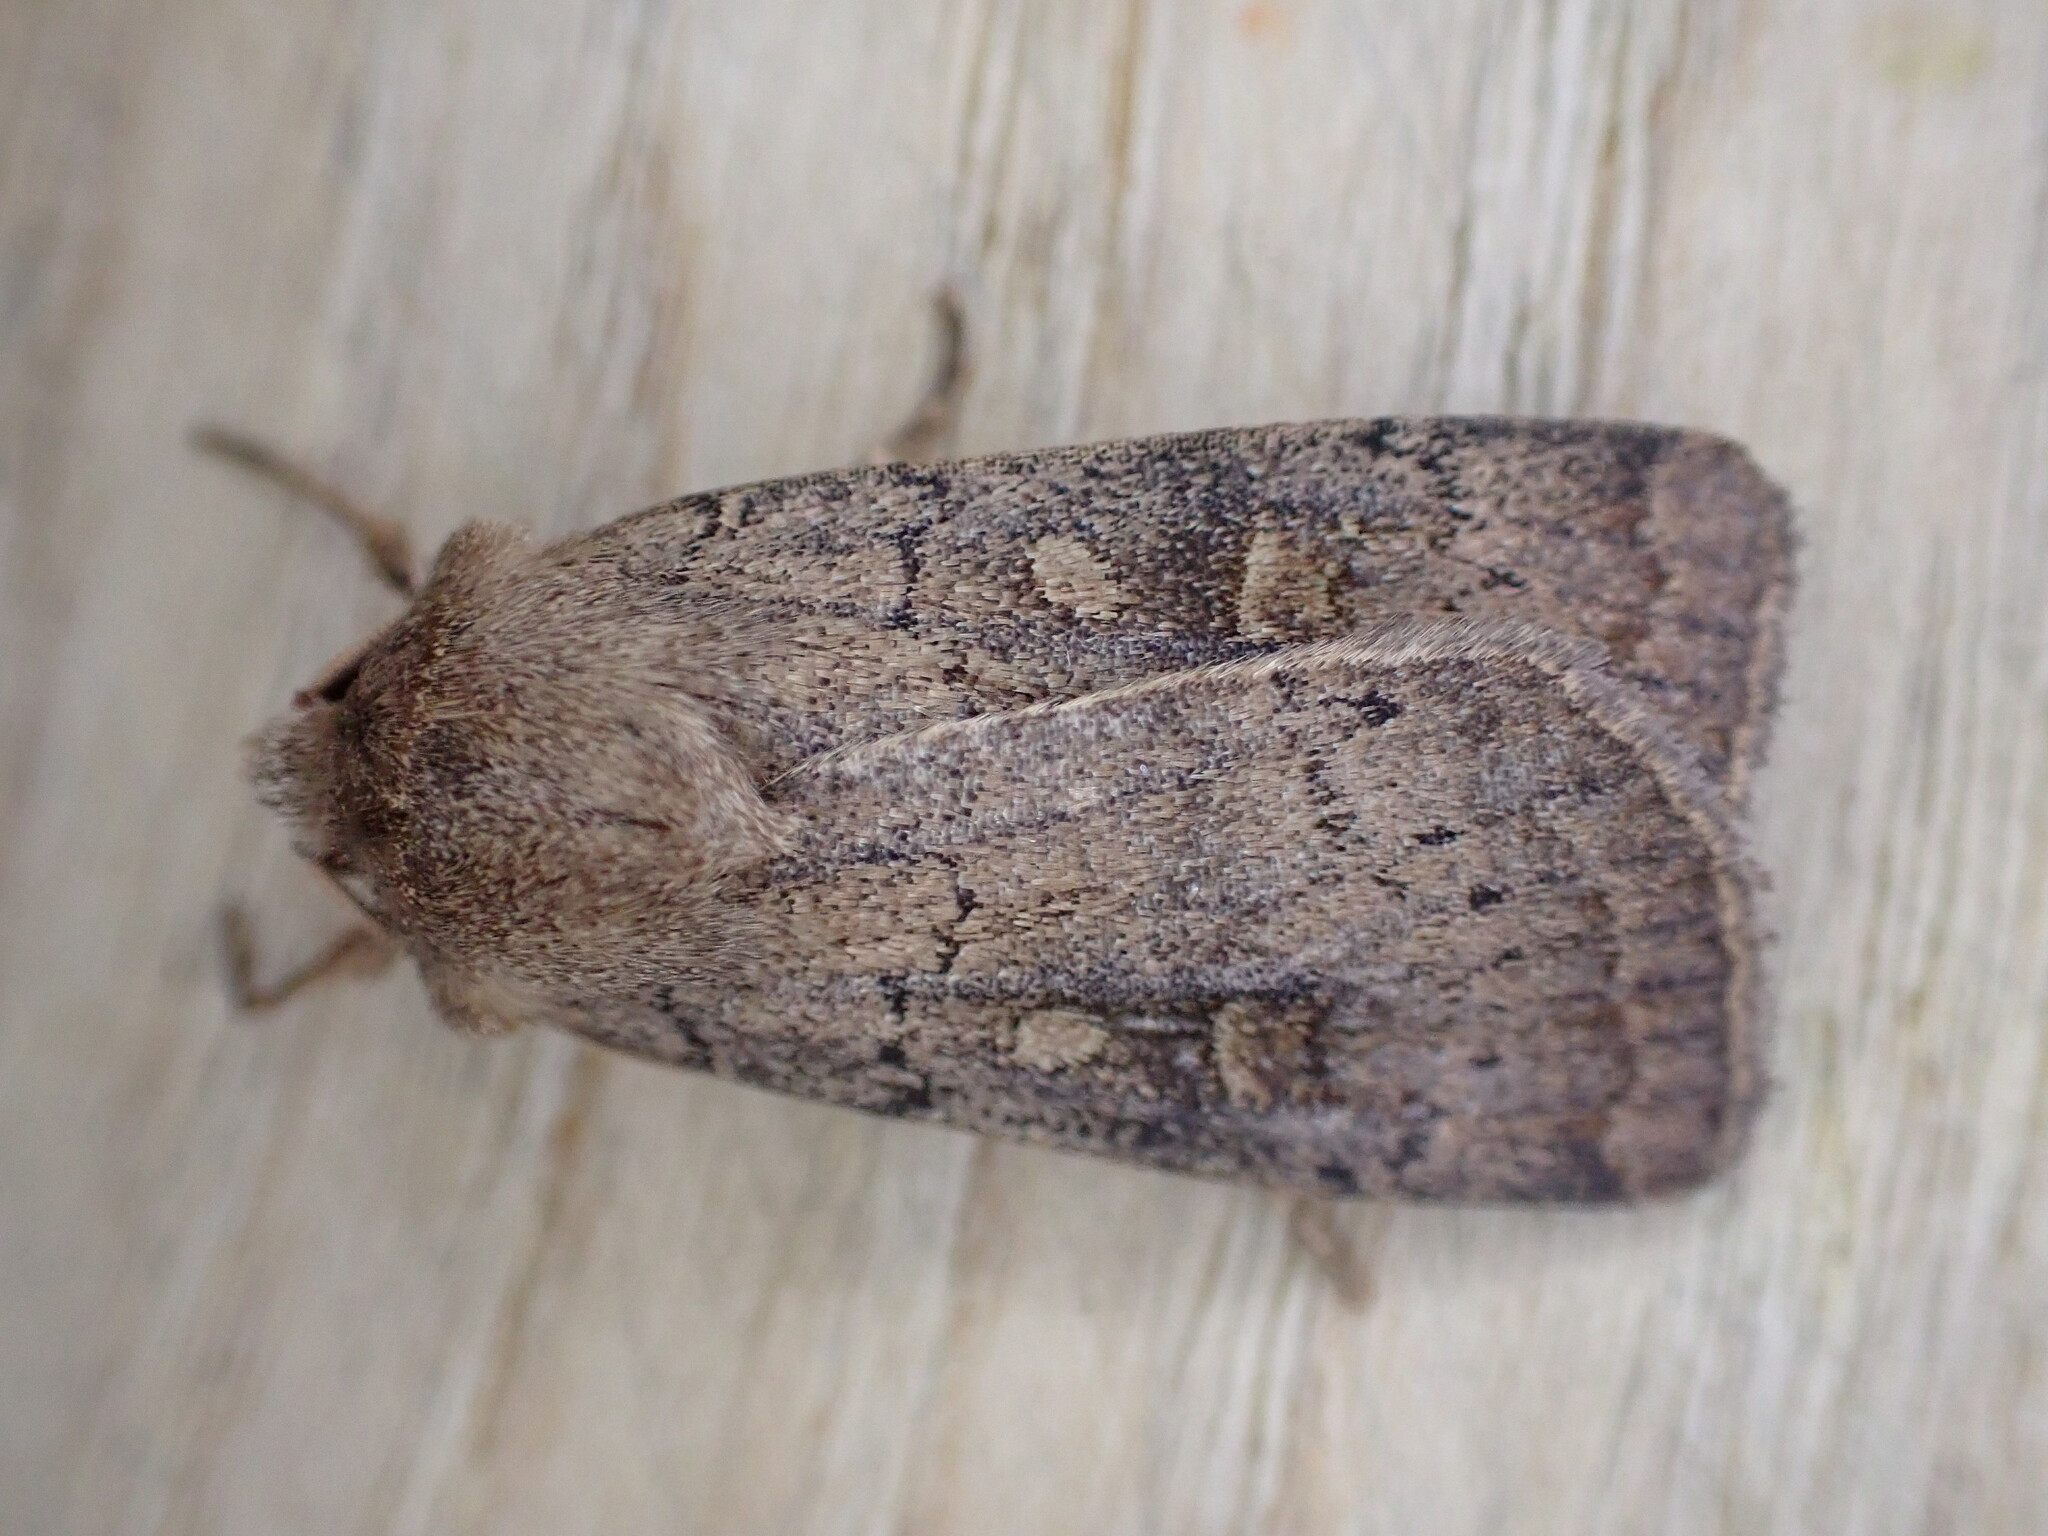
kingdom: Animalia
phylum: Arthropoda
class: Insecta
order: Lepidoptera
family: Noctuidae
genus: Xestia
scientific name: Xestia xanthographa
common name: Square-spot rustic
